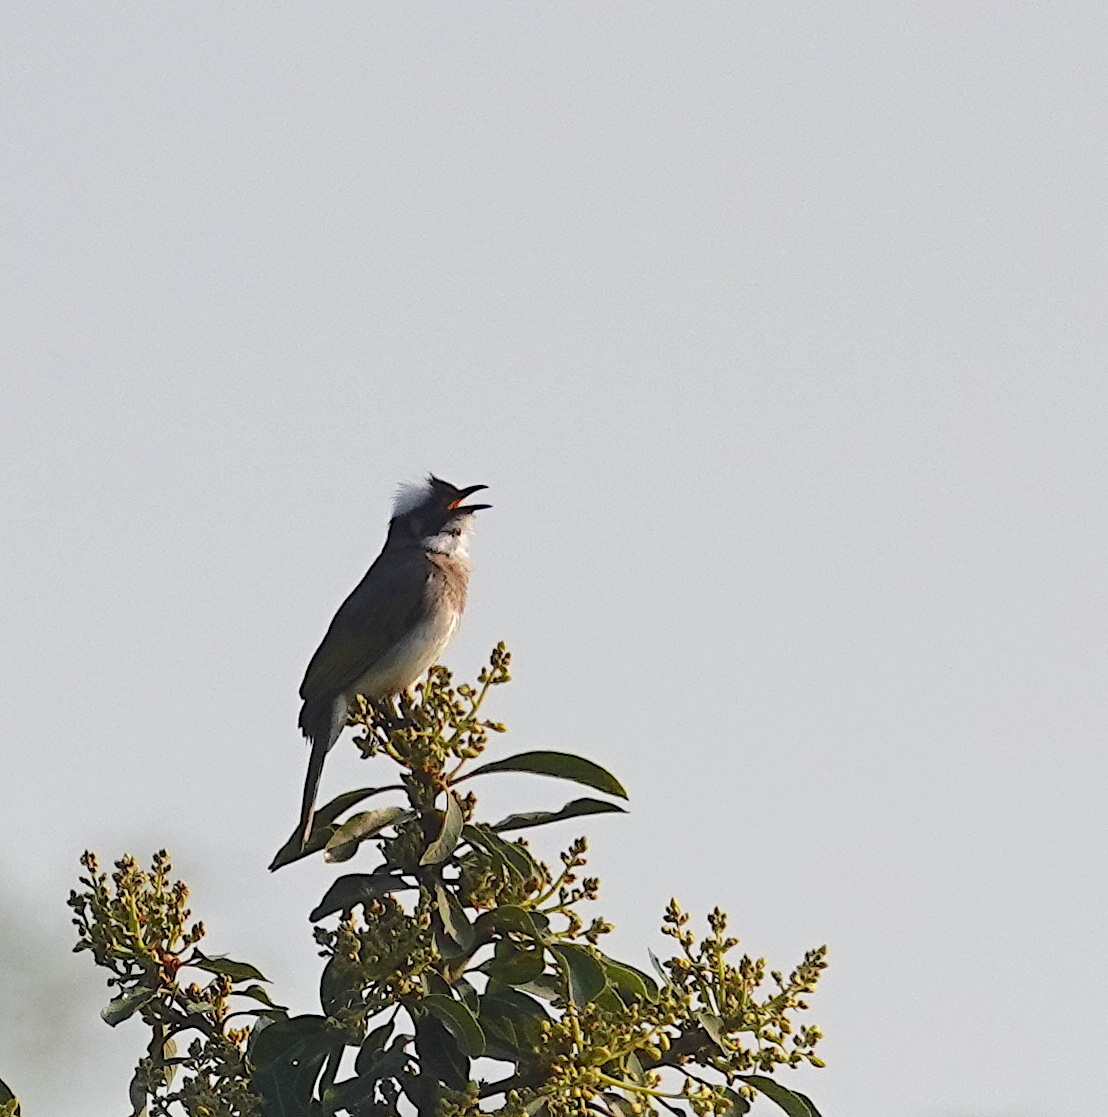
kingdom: Animalia
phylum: Chordata
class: Aves
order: Passeriformes
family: Pycnonotidae
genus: Pycnonotus
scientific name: Pycnonotus sinensis
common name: Light-vented bulbul
